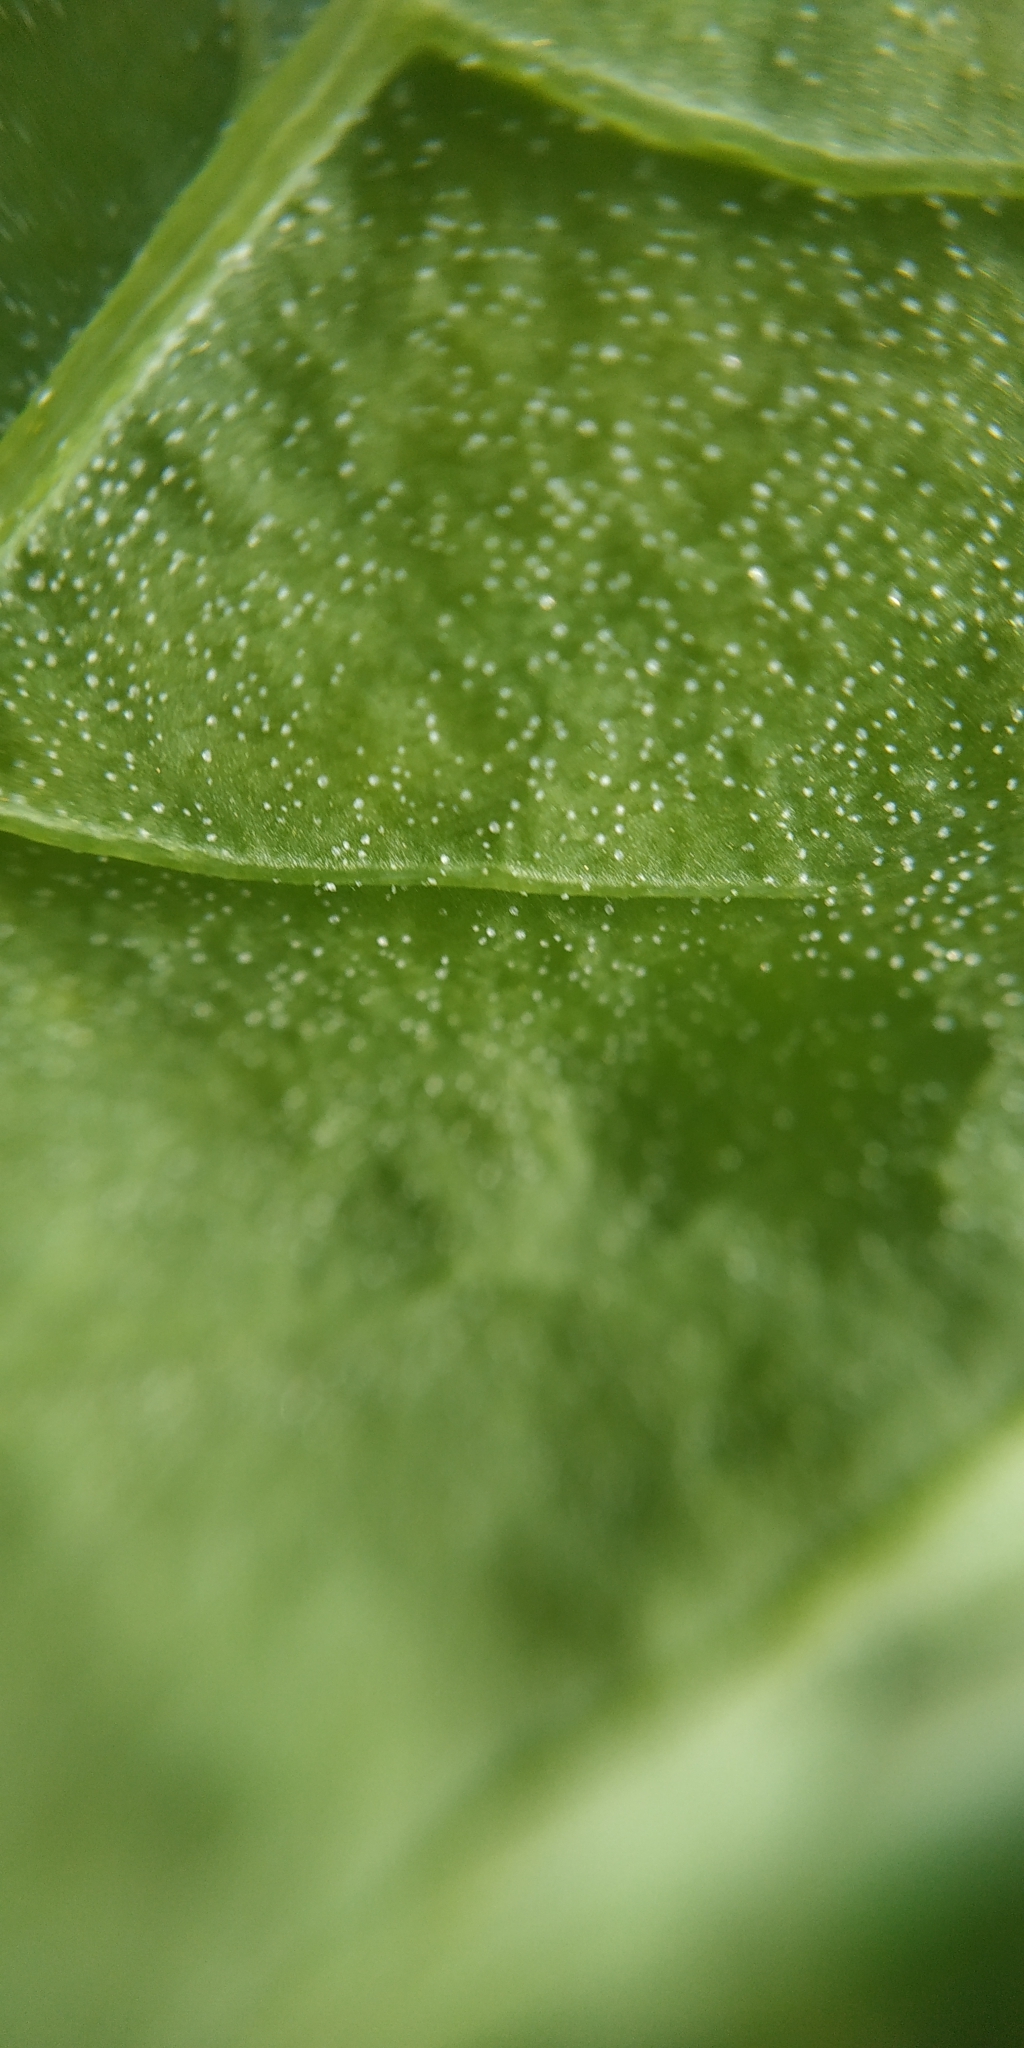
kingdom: Plantae
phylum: Tracheophyta
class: Magnoliopsida
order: Caryophyllales
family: Amaranthaceae
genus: Atriplex
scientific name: Atriplex sagittata
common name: Purple orache
